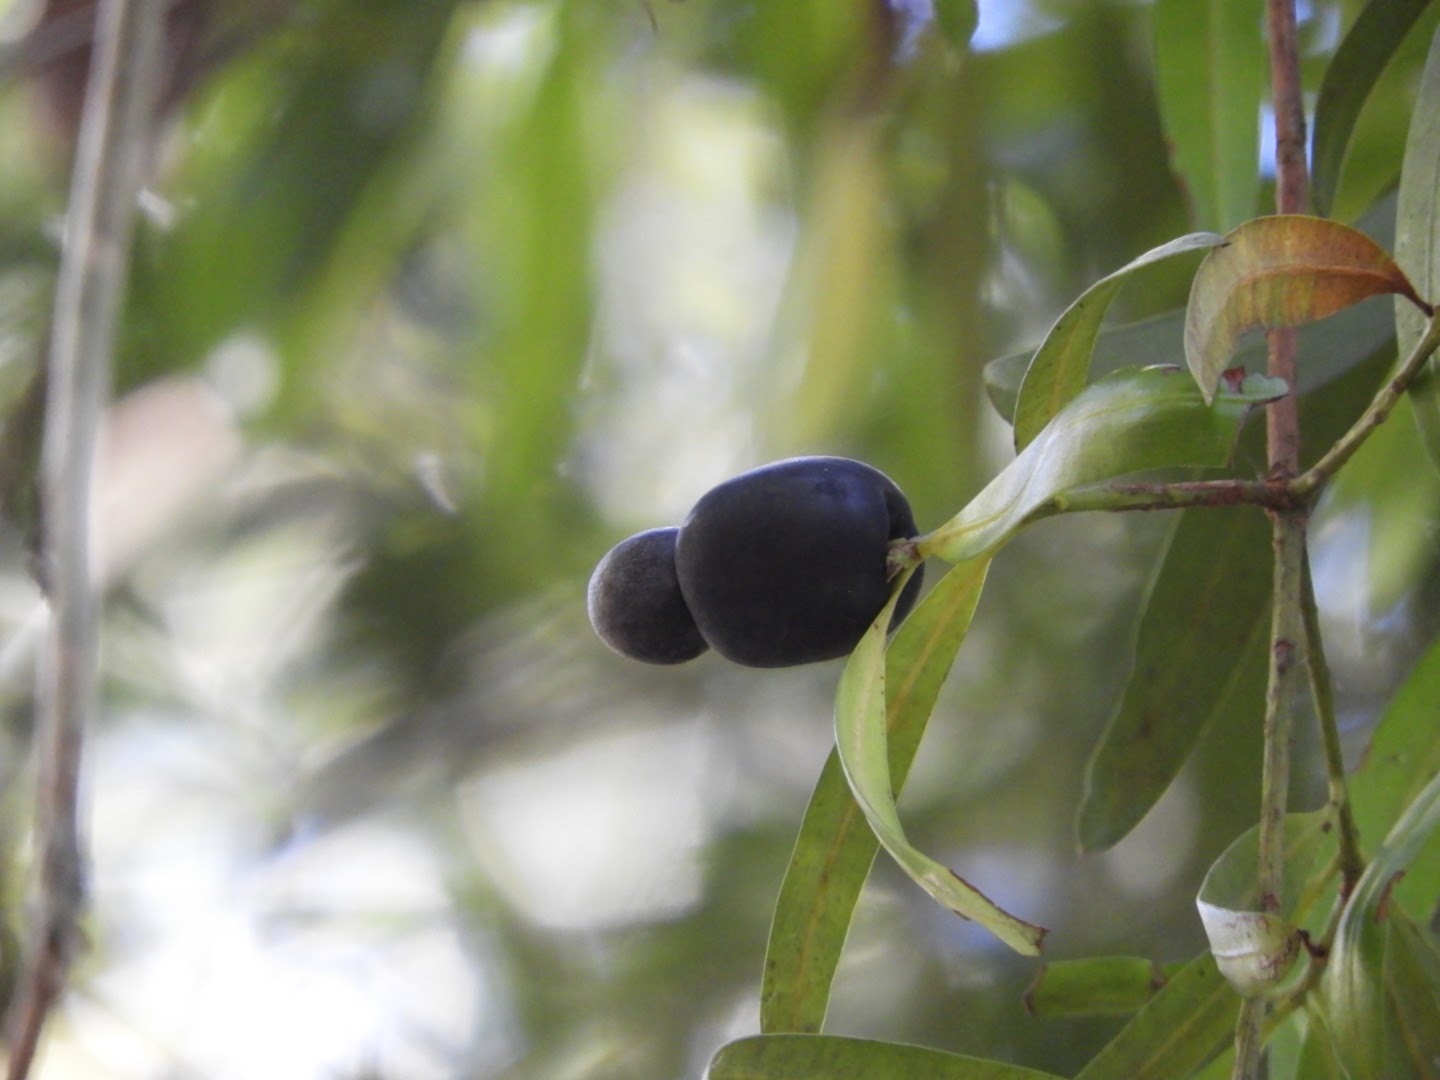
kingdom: Plantae
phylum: Tracheophyta
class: Pinopsida
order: Pinales
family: Podocarpaceae
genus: Podocarpus
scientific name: Podocarpus elatus
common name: Plum pine
